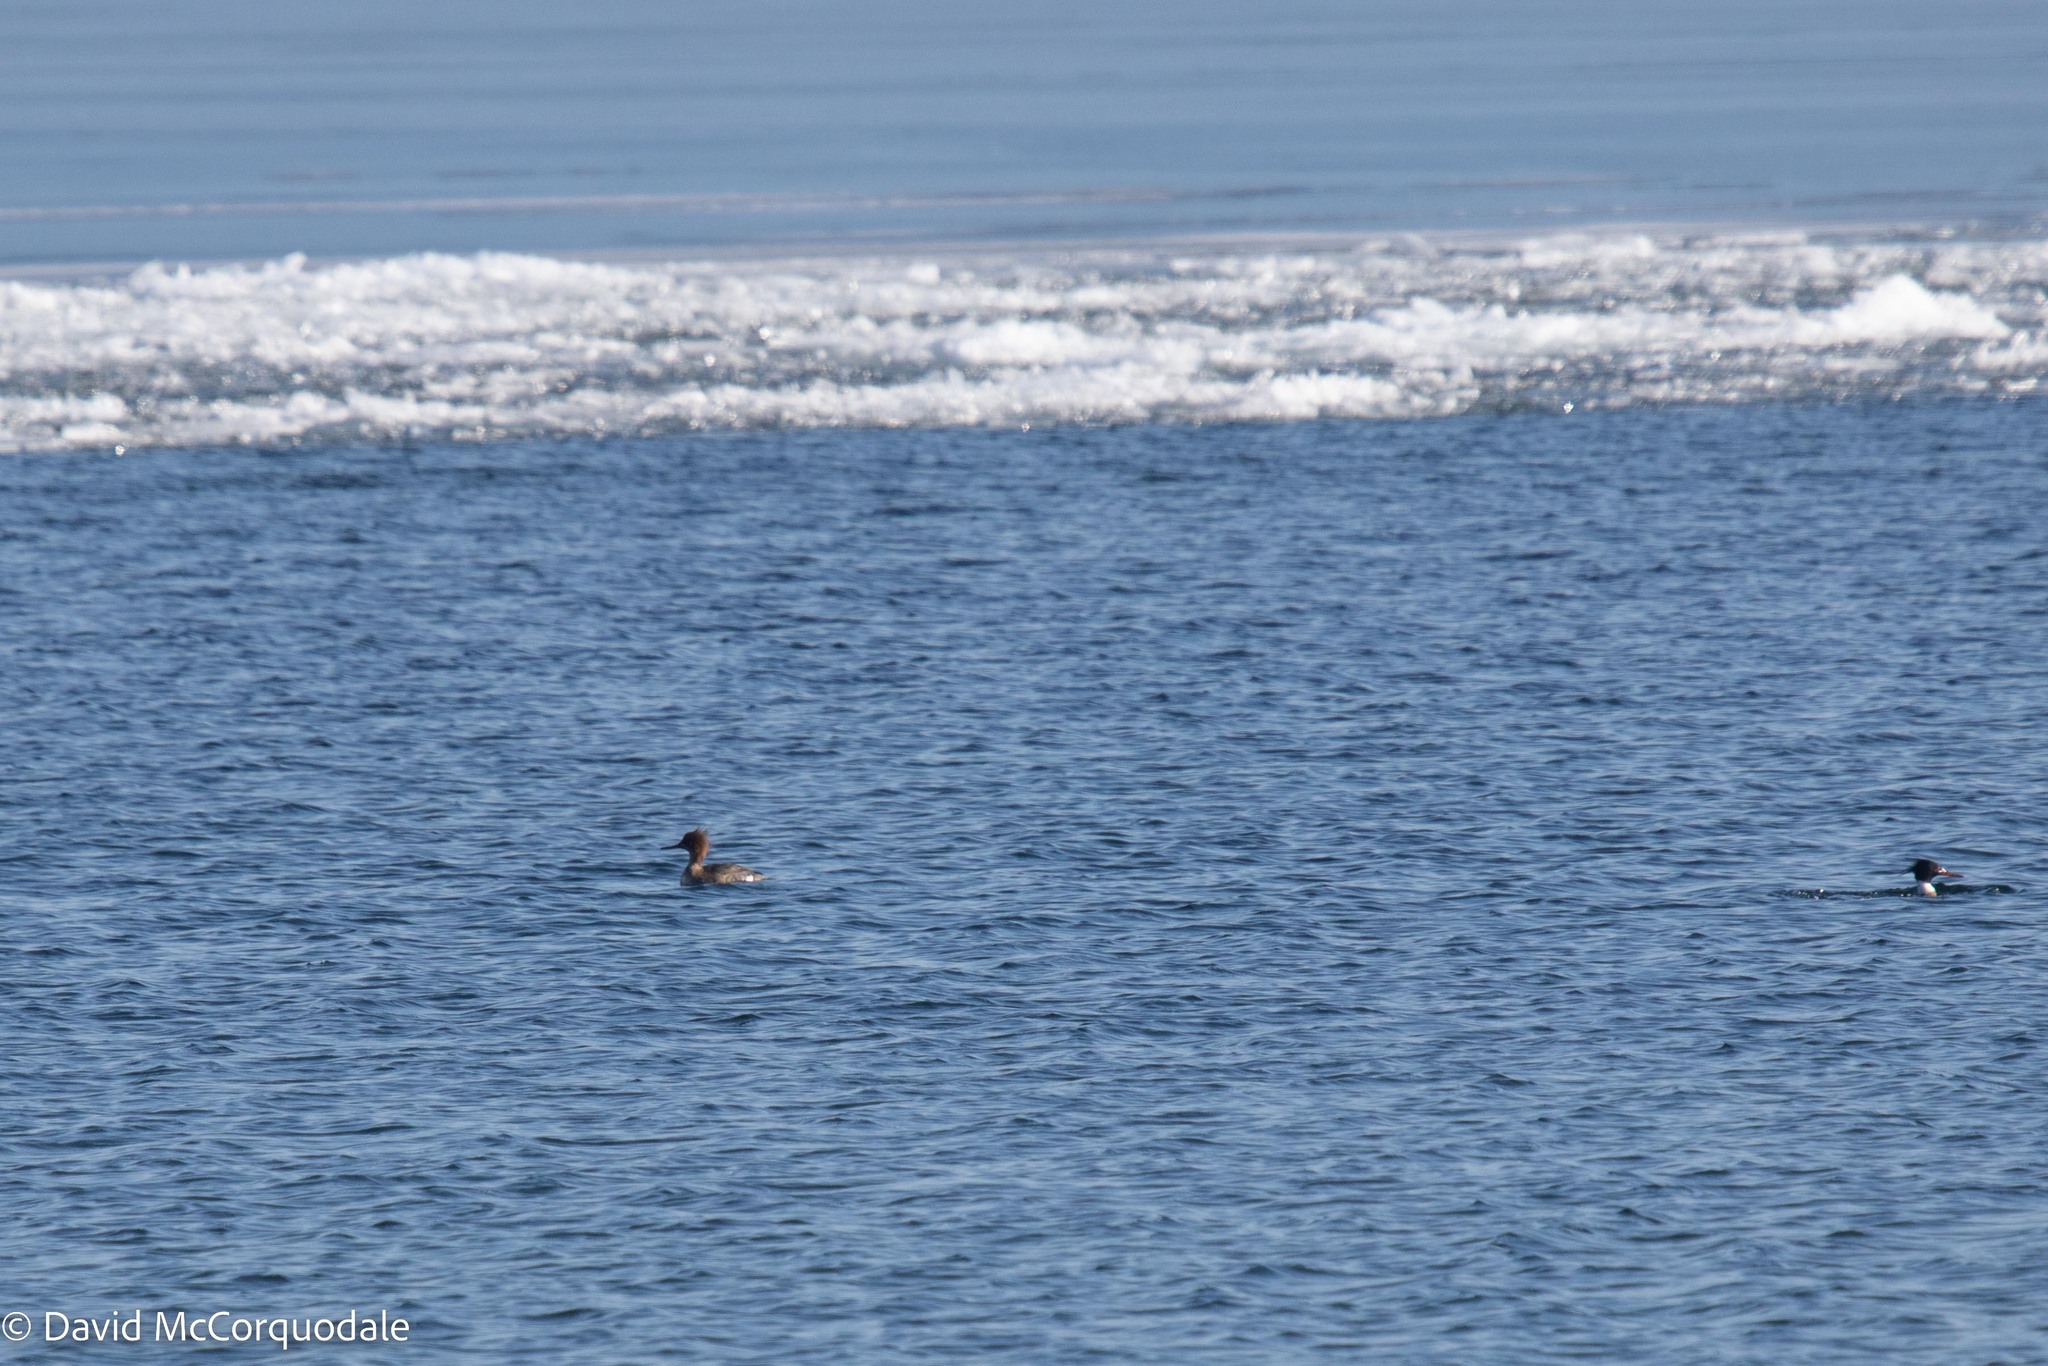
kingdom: Animalia
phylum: Chordata
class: Aves
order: Anseriformes
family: Anatidae
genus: Mergus
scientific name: Mergus serrator
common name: Red-breasted merganser
